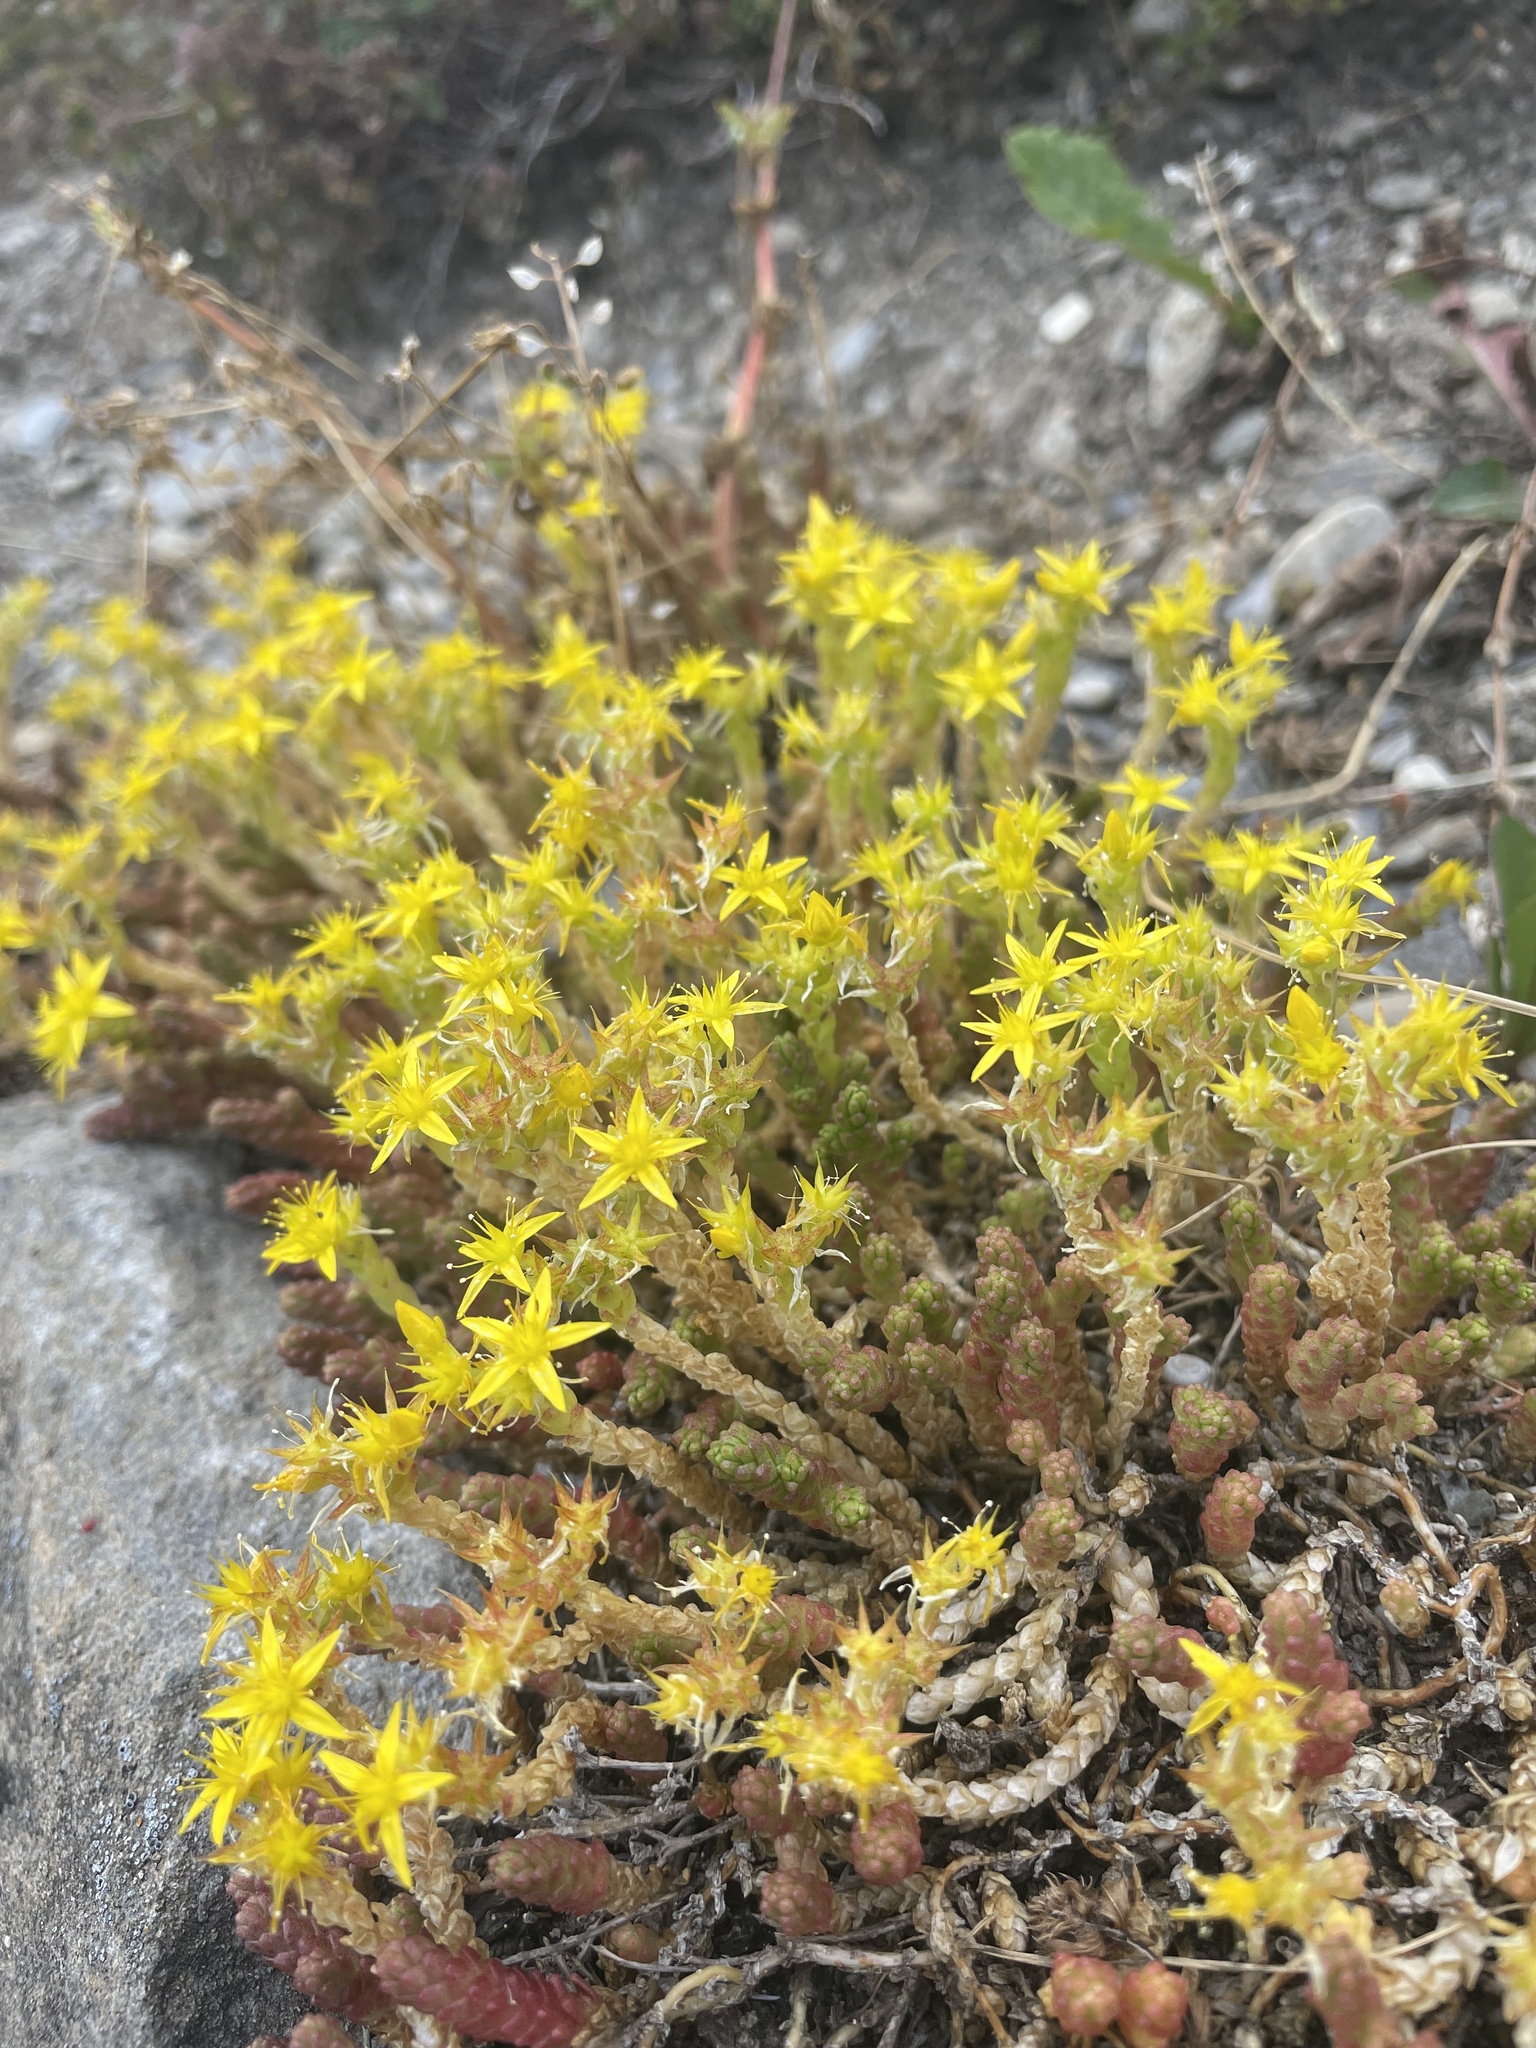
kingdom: Plantae
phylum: Tracheophyta
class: Magnoliopsida
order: Saxifragales
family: Crassulaceae
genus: Sedum
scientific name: Sedum acre
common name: Biting stonecrop
